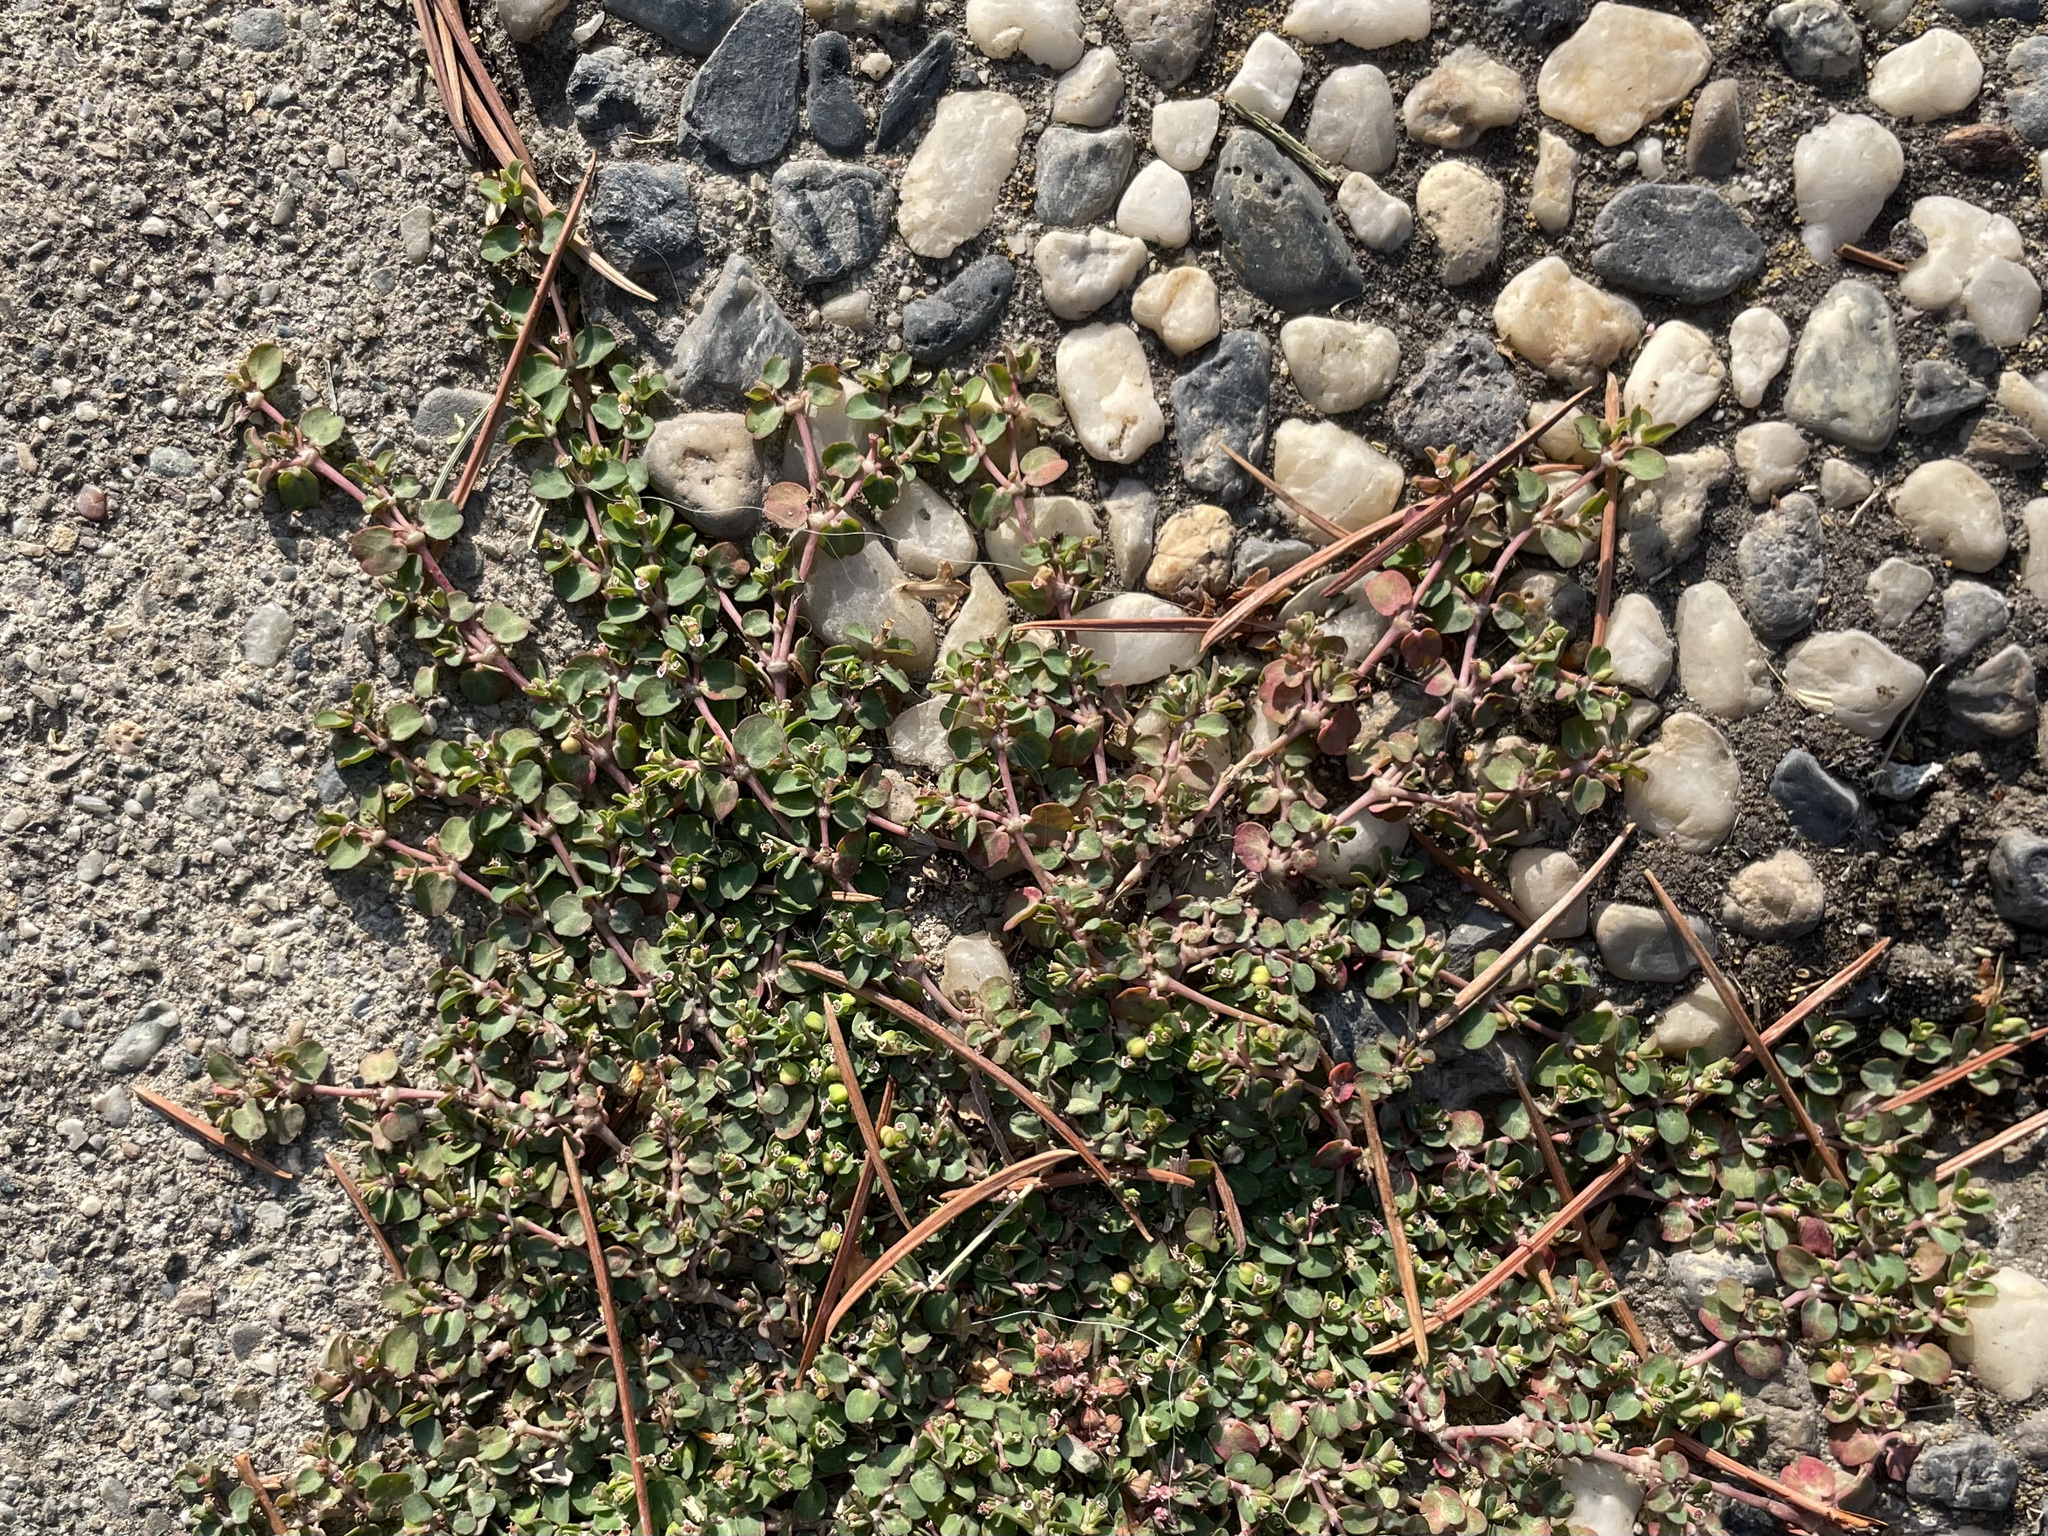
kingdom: Plantae
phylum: Tracheophyta
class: Magnoliopsida
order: Malpighiales
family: Euphorbiaceae
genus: Euphorbia
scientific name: Euphorbia serpens
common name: Matted sandmat
